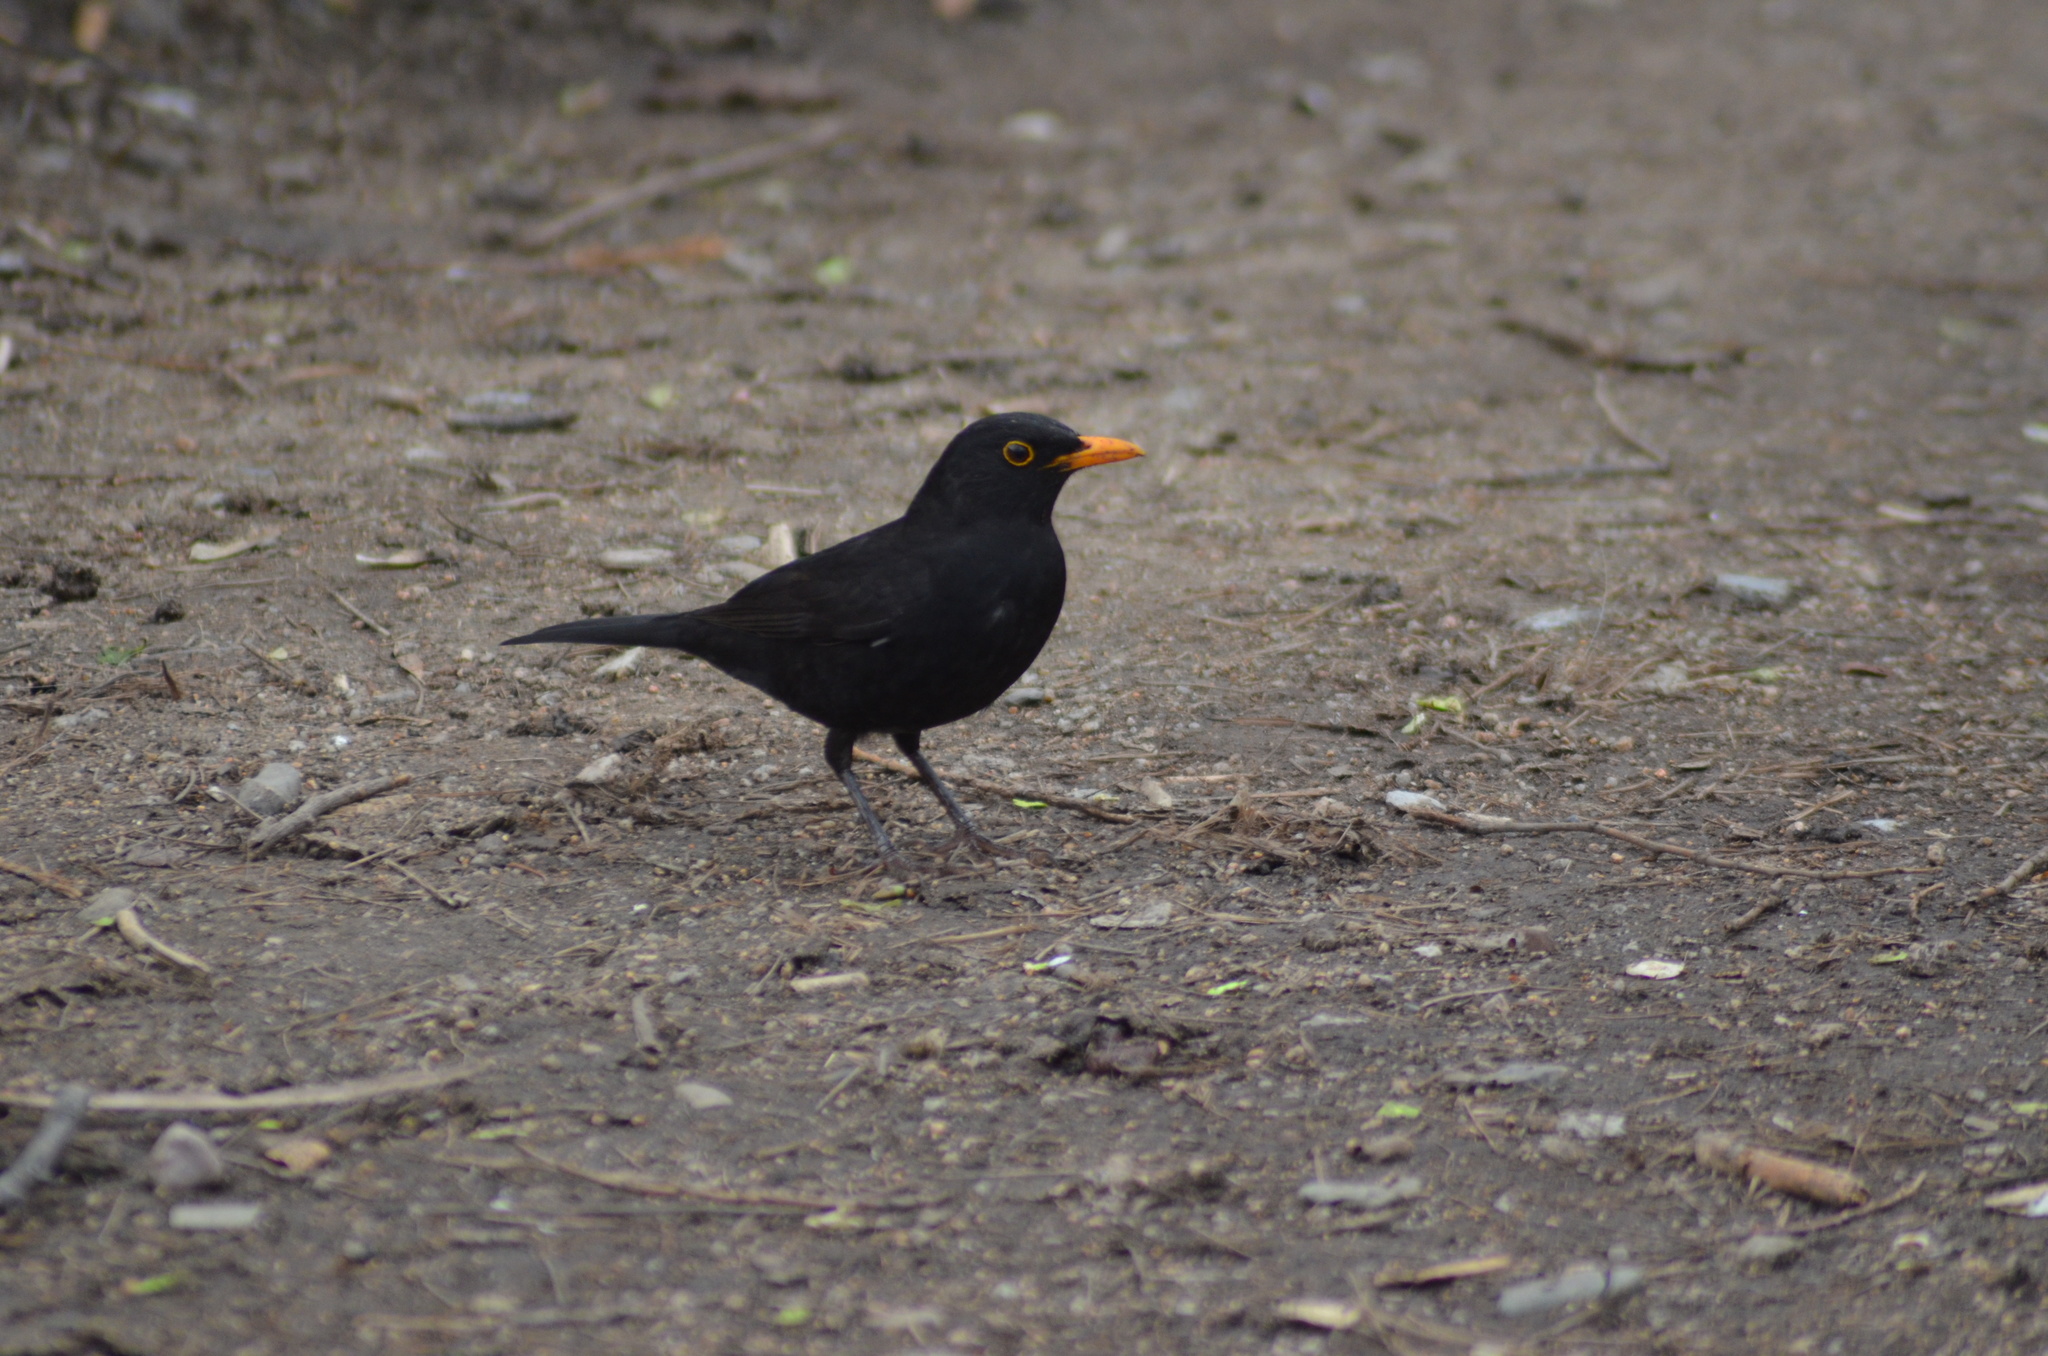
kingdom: Animalia
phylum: Chordata
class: Aves
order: Passeriformes
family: Turdidae
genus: Turdus
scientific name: Turdus merula
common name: Common blackbird
